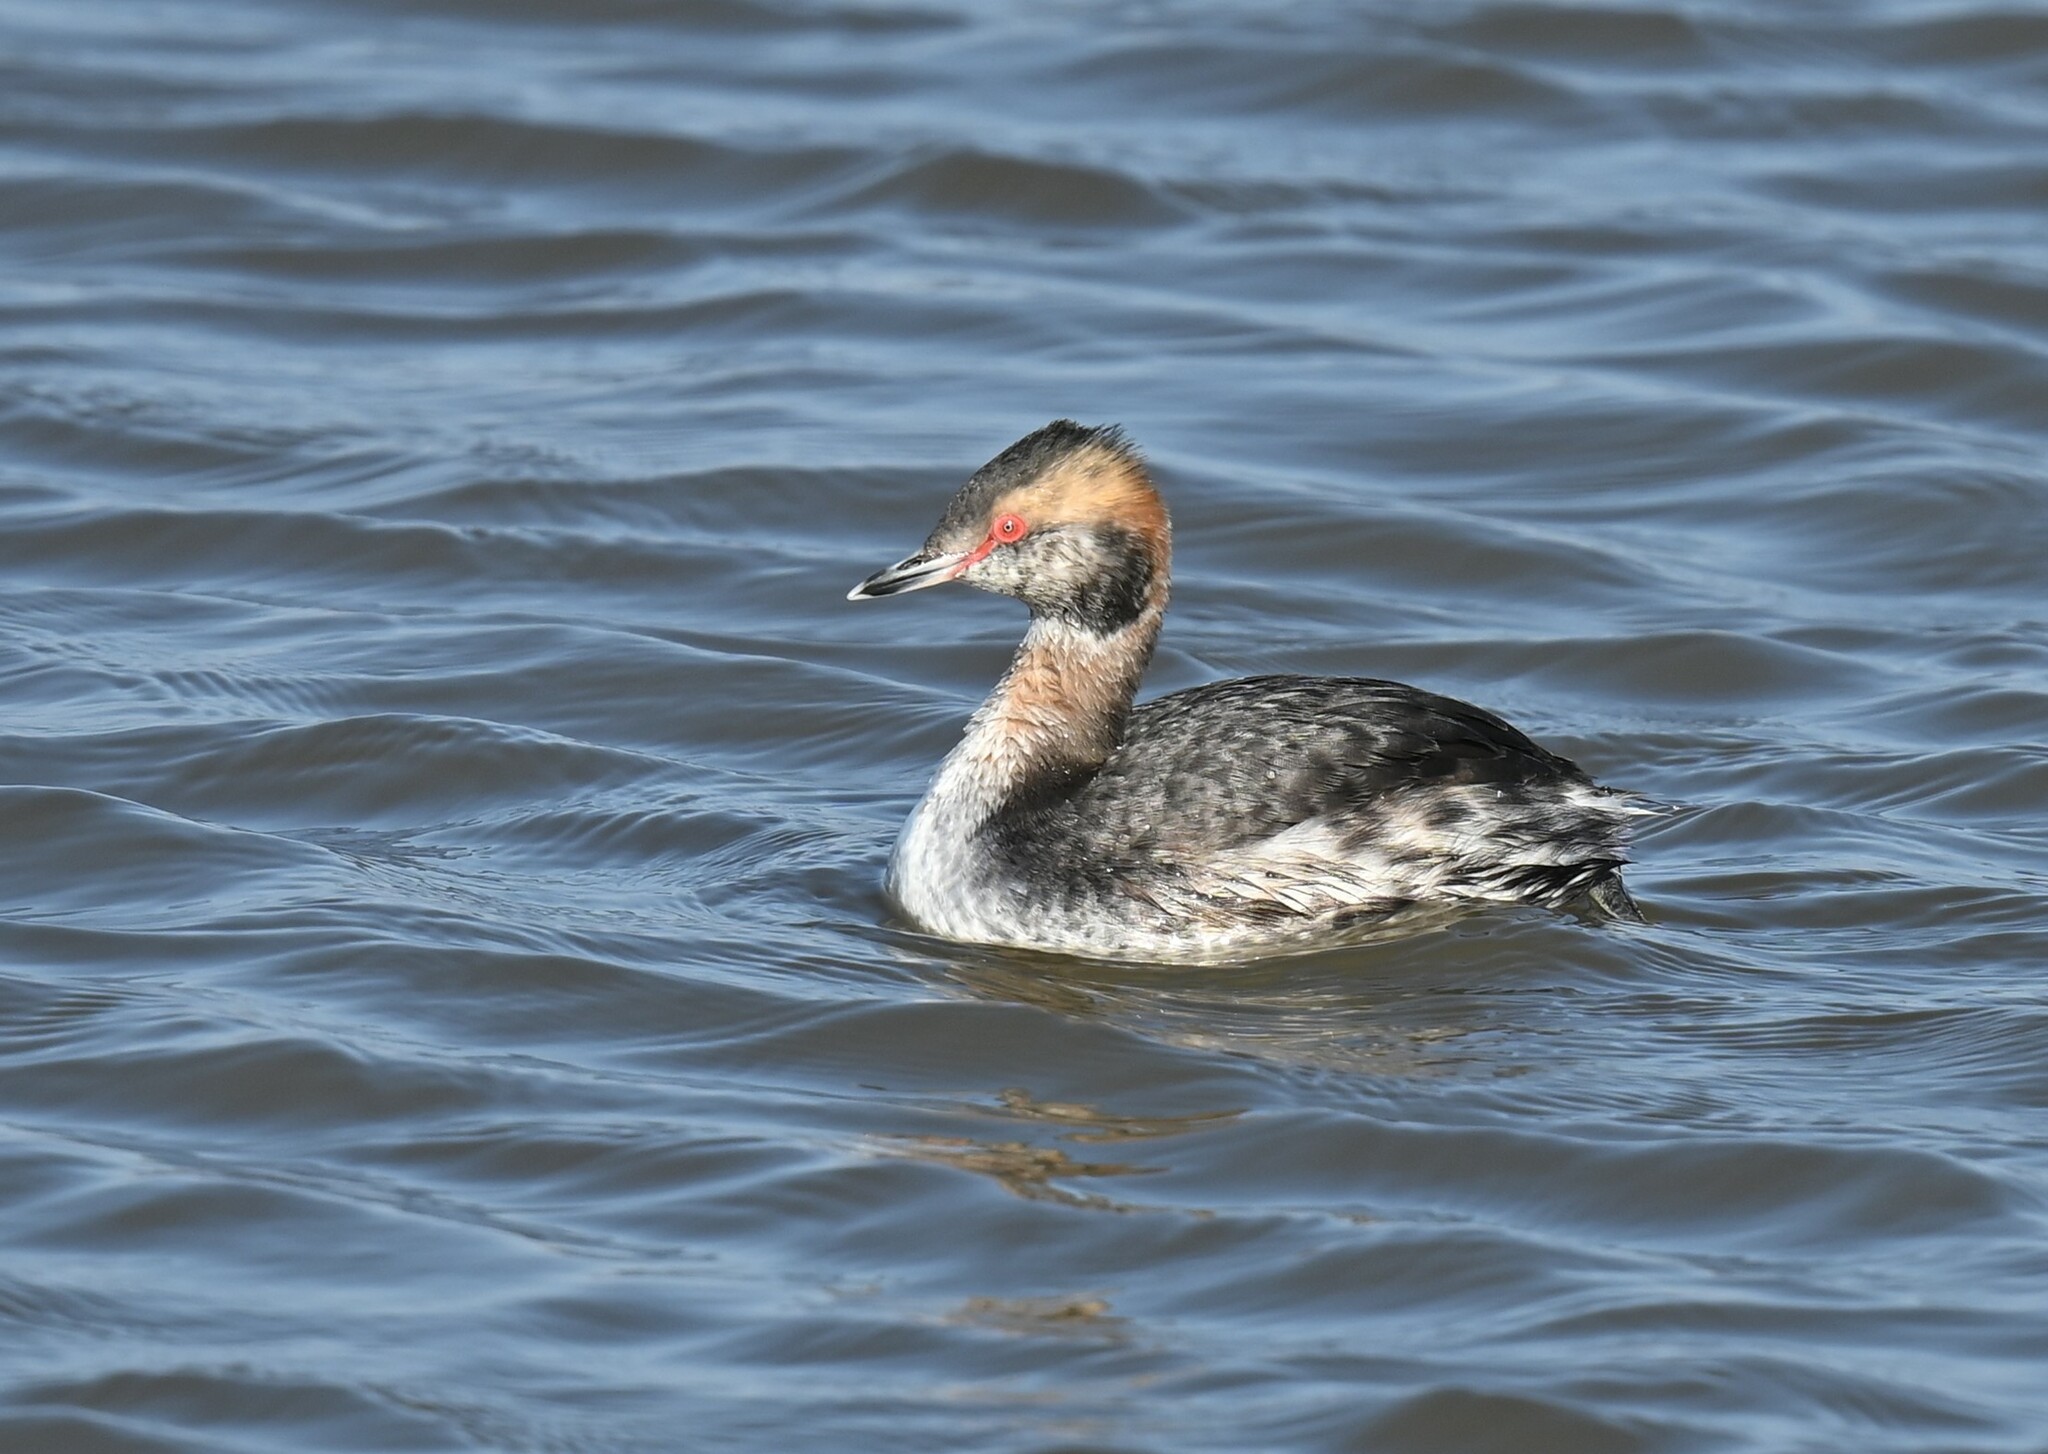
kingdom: Animalia
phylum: Chordata
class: Aves
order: Podicipediformes
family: Podicipedidae
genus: Podiceps
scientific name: Podiceps auritus
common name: Horned grebe
